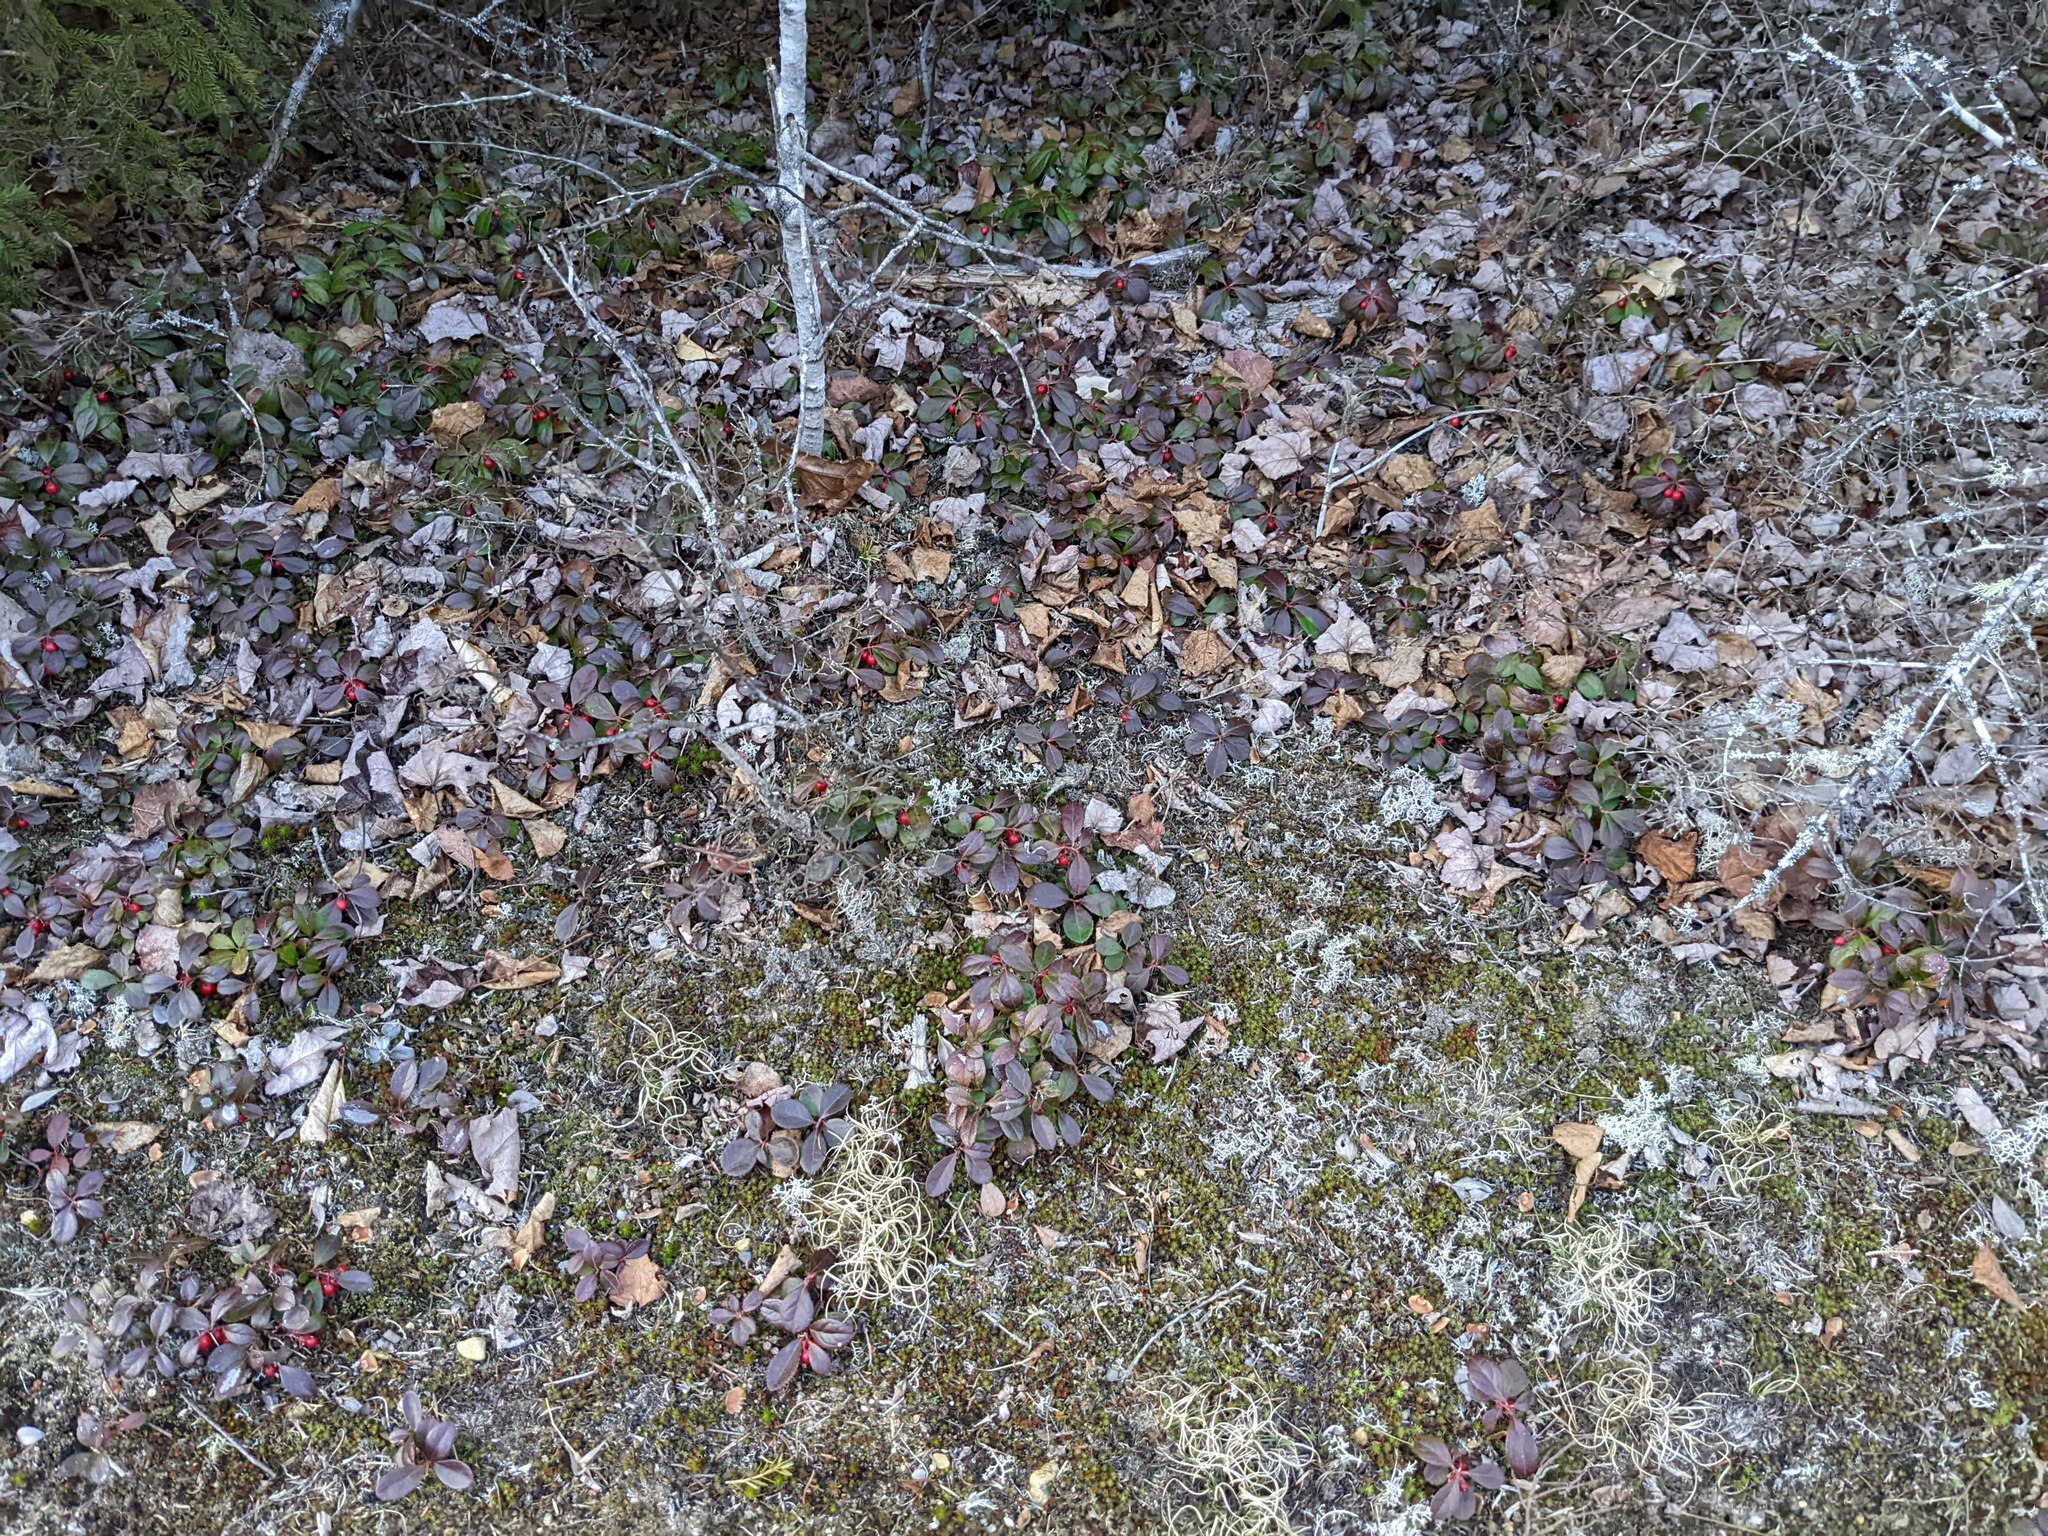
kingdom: Plantae
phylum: Tracheophyta
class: Magnoliopsida
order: Ericales
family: Ericaceae
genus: Gaultheria
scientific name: Gaultheria procumbens
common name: Checkerberry
